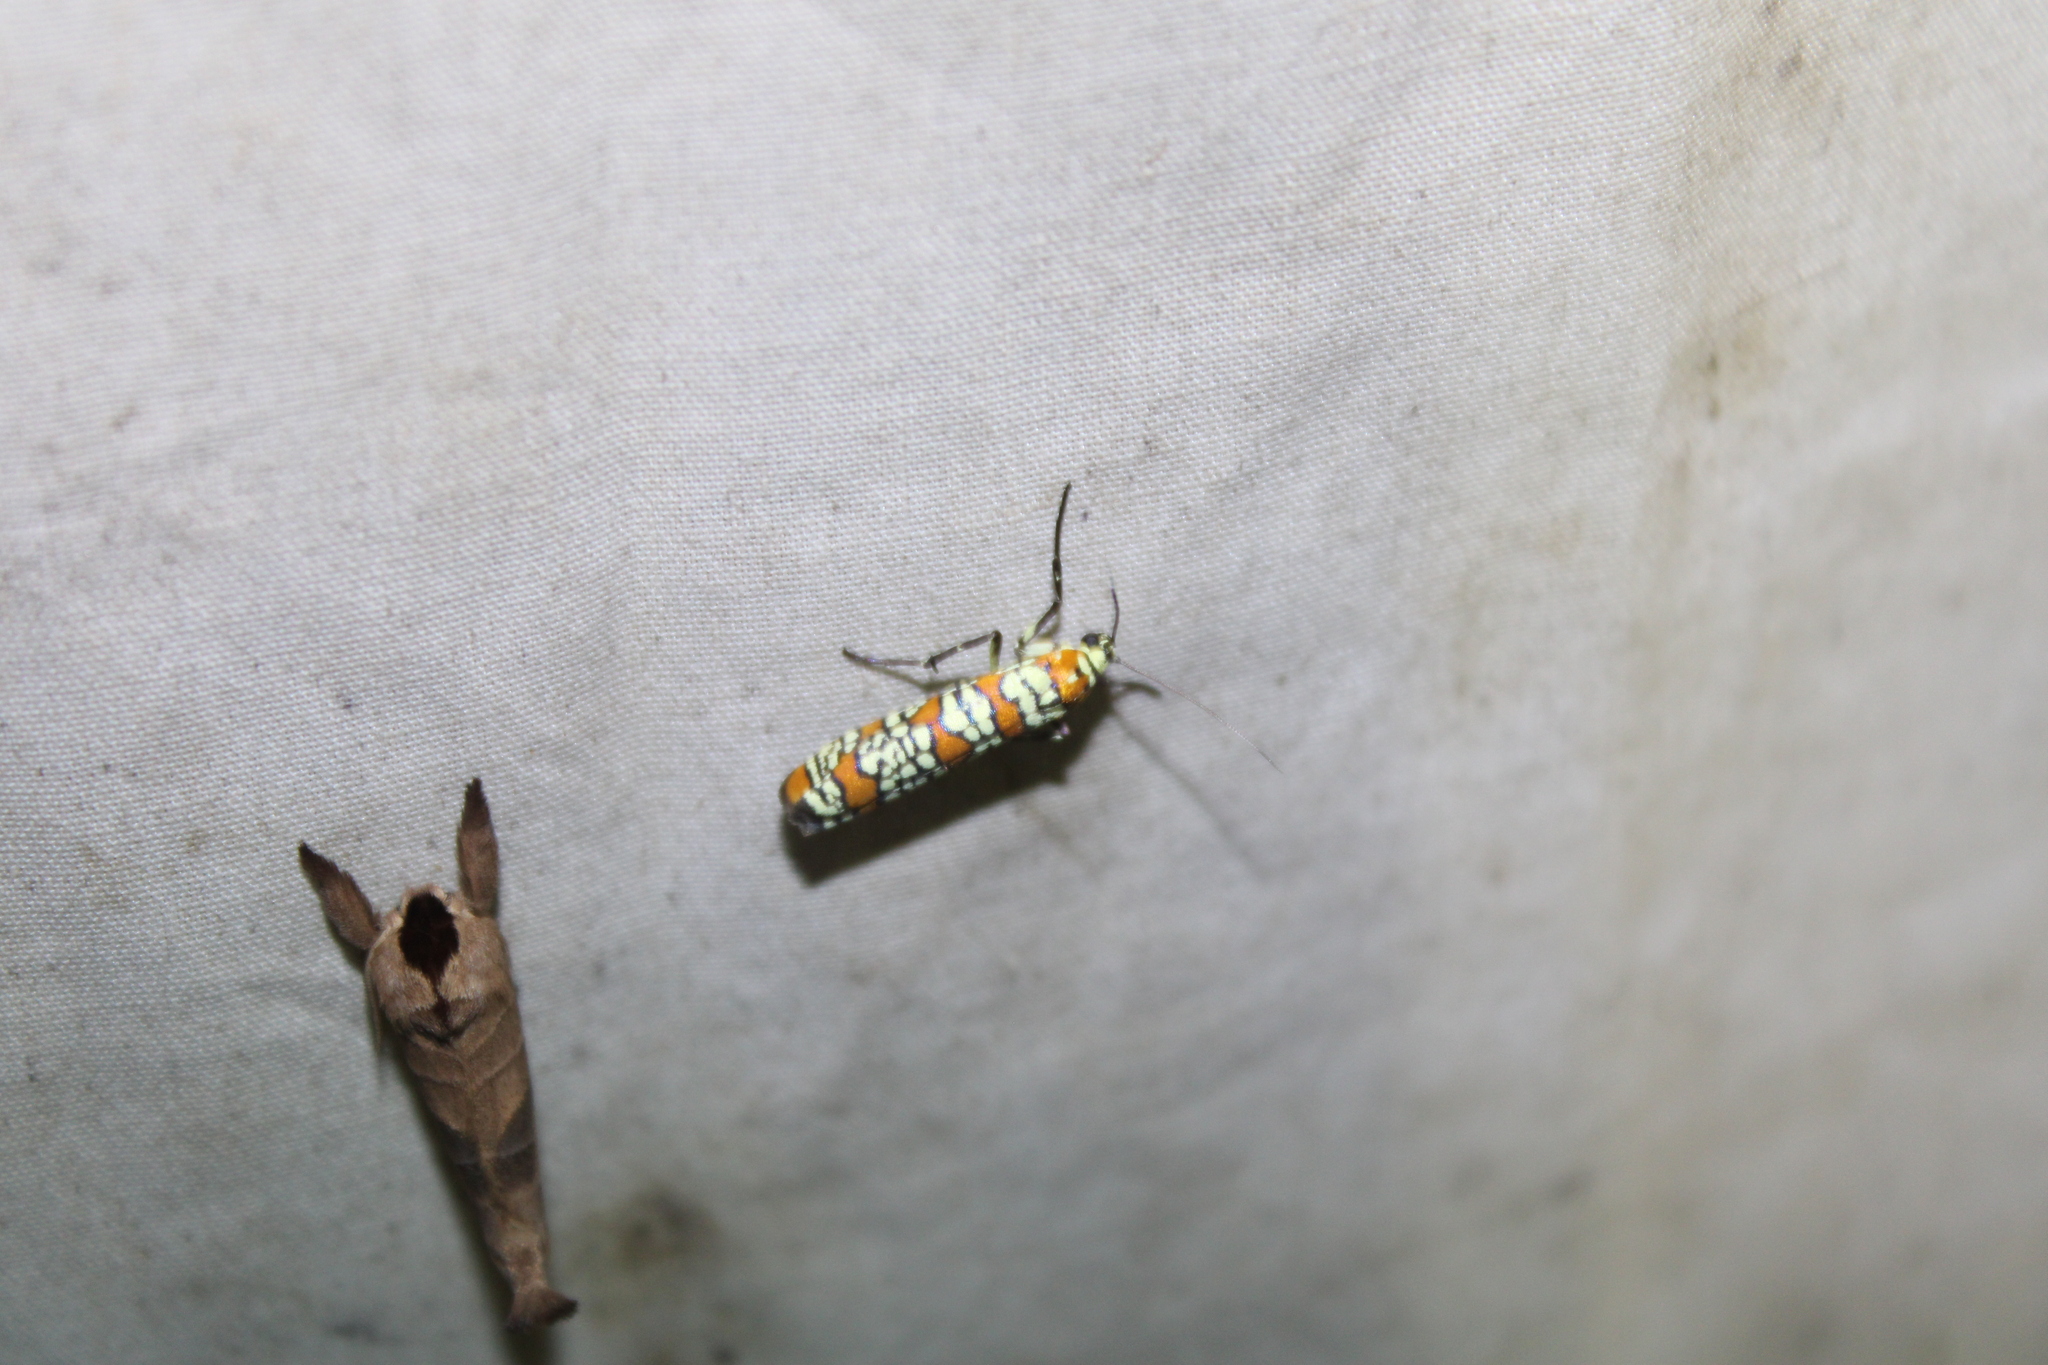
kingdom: Animalia
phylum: Arthropoda
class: Insecta
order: Lepidoptera
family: Attevidae
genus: Atteva
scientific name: Atteva punctella
